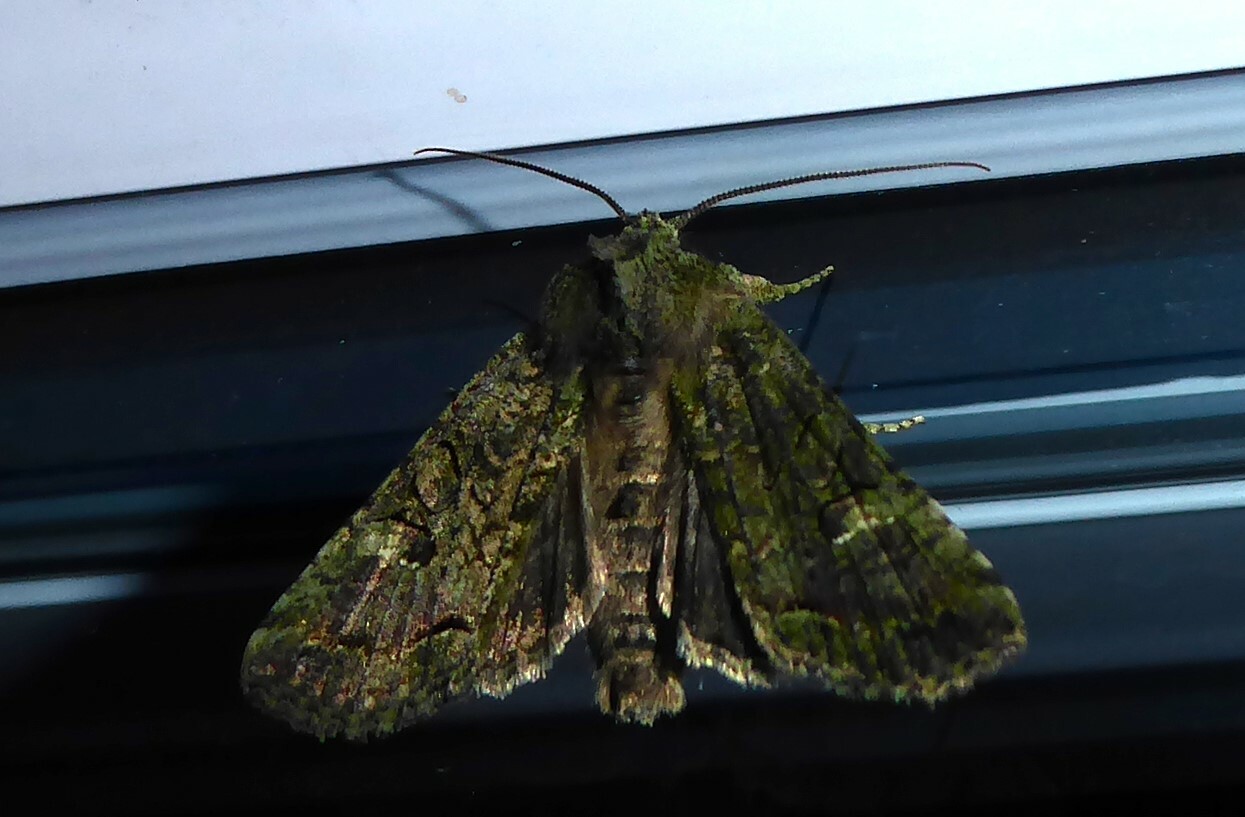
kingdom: Animalia
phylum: Arthropoda
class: Insecta
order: Lepidoptera
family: Noctuidae
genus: Meterana
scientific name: Meterana levis
